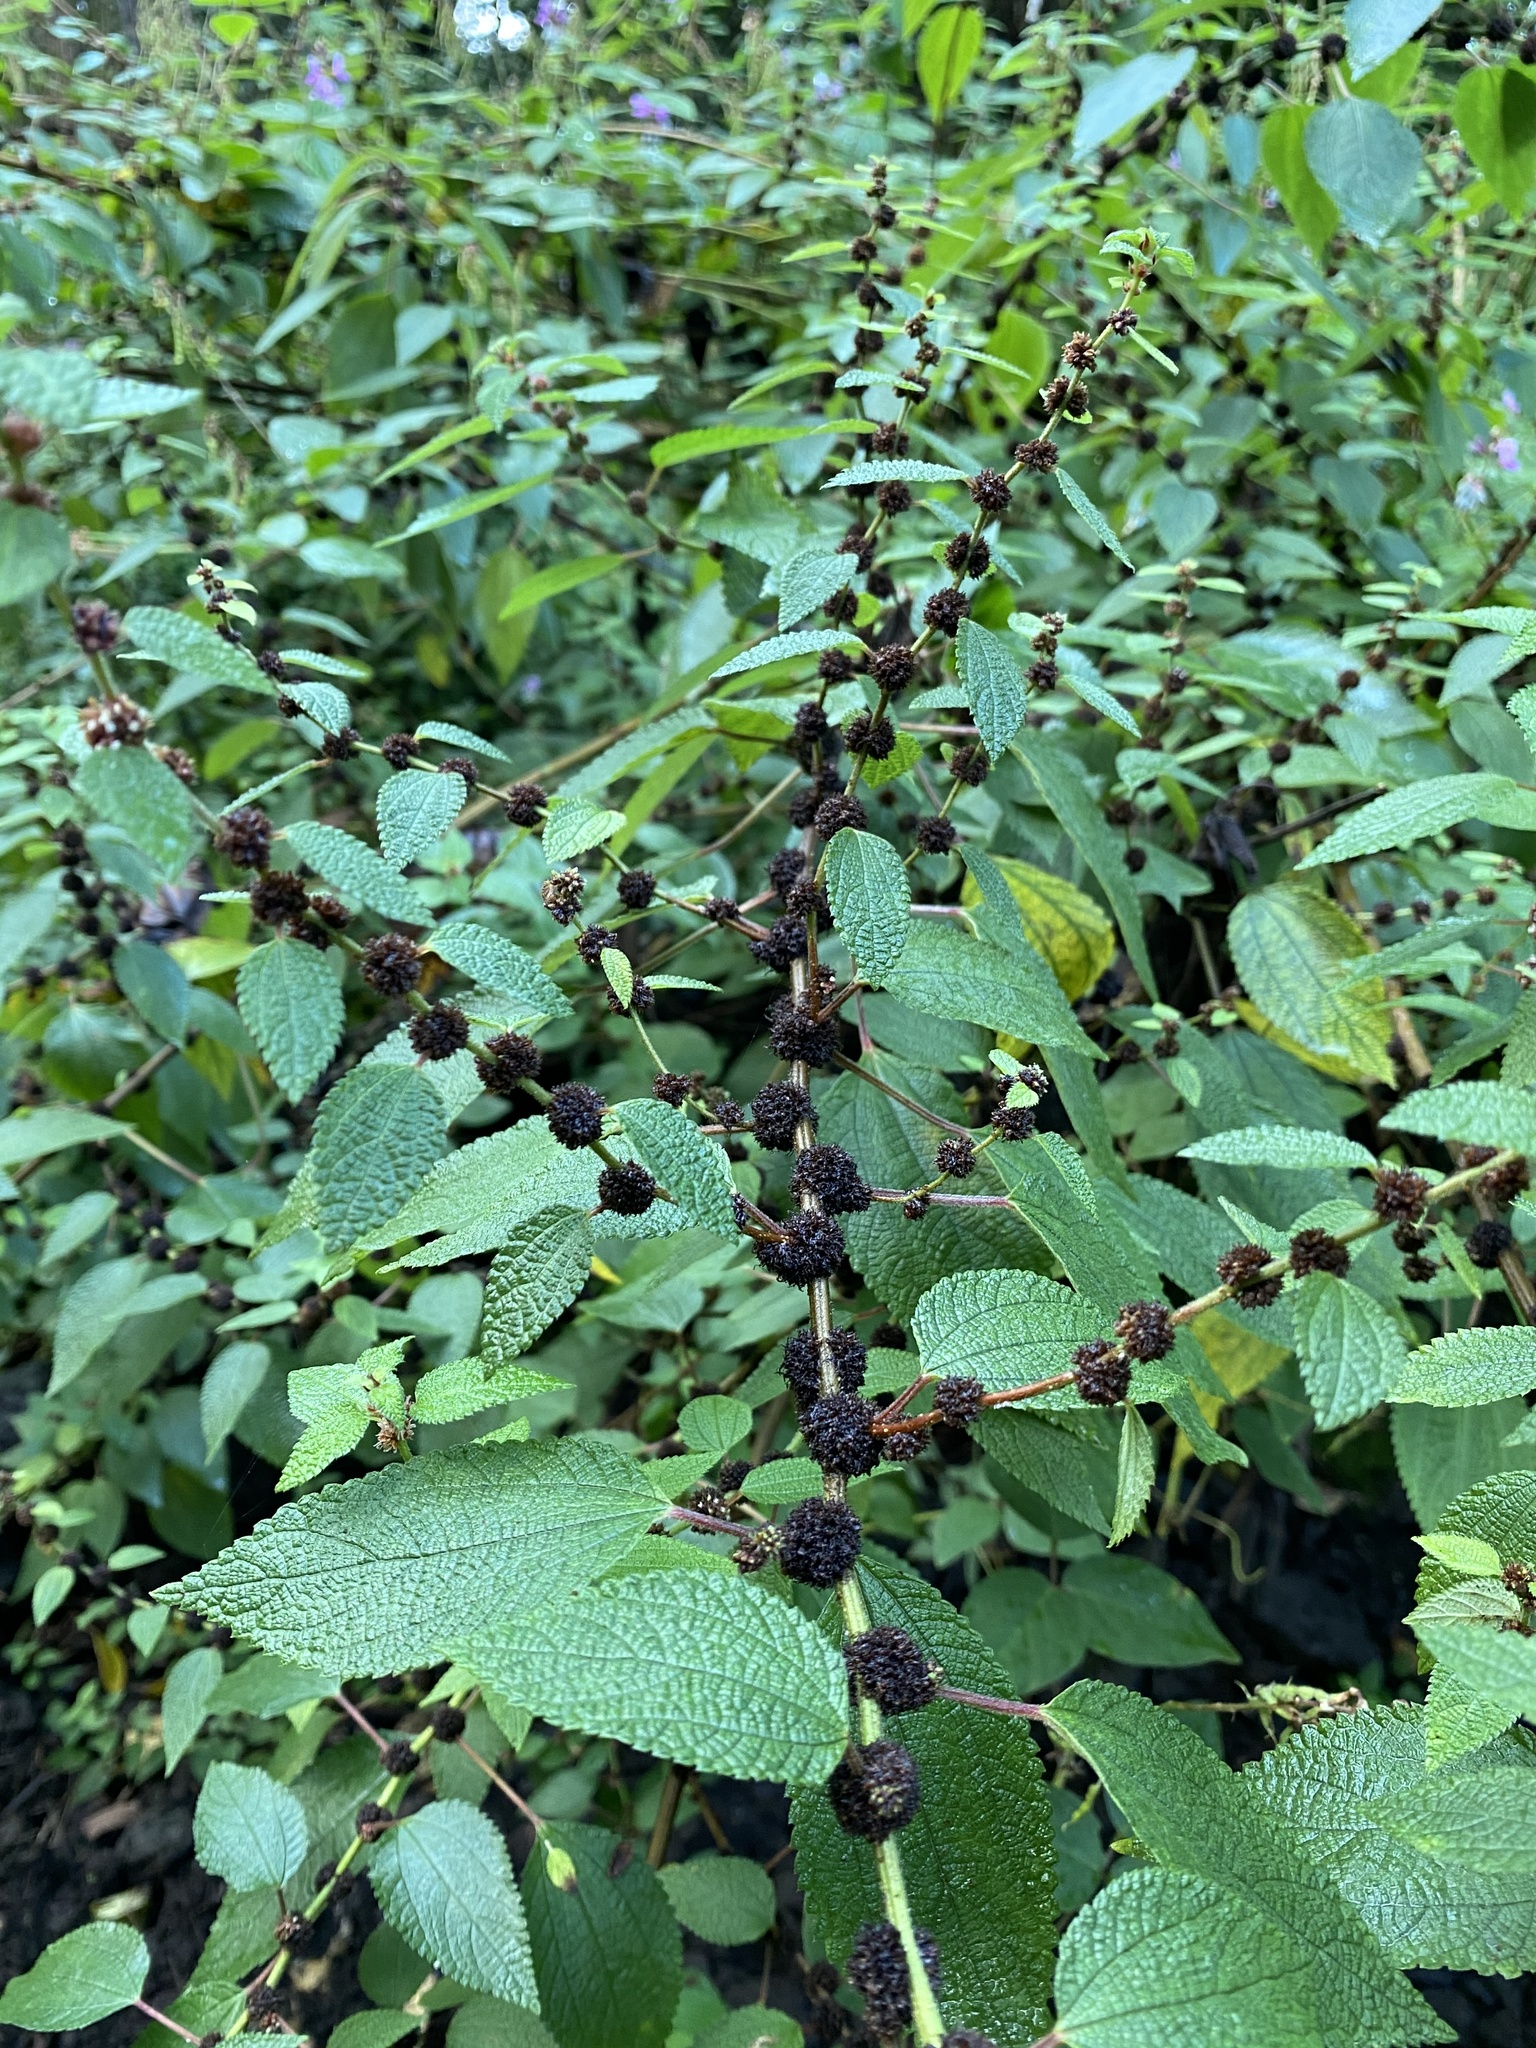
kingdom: Plantae
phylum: Tracheophyta
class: Magnoliopsida
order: Rosales
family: Urticaceae
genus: Phenax
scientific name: Phenax hirtus
